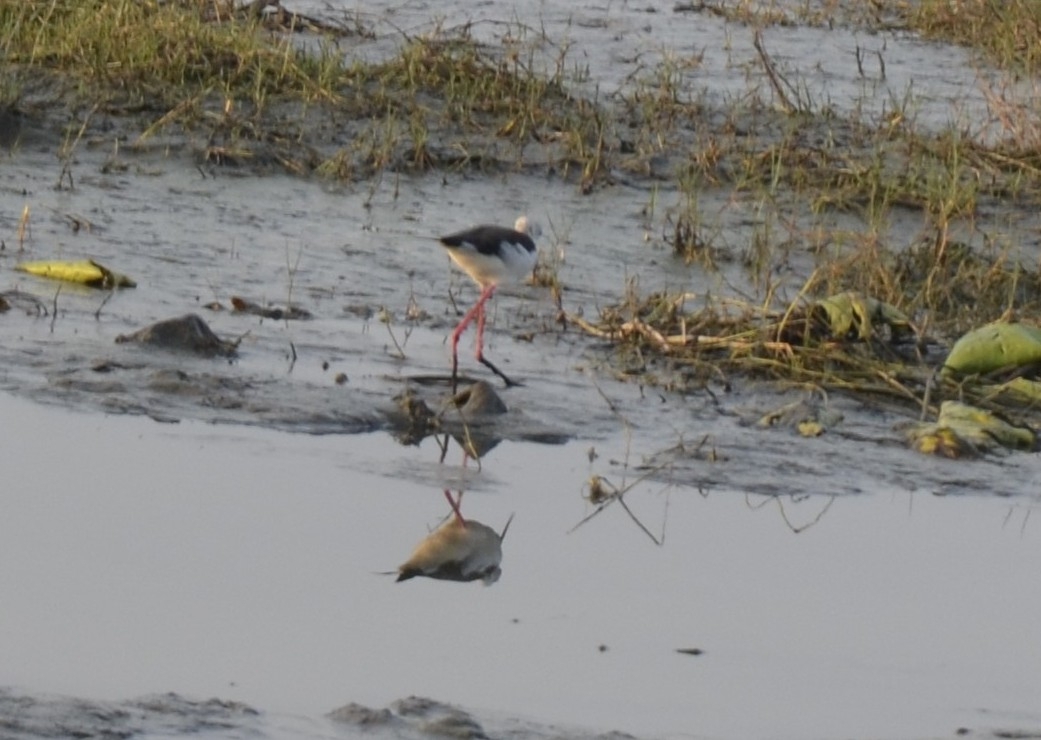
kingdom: Animalia
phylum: Chordata
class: Aves
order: Charadriiformes
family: Recurvirostridae
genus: Himantopus
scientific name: Himantopus himantopus
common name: Black-winged stilt
